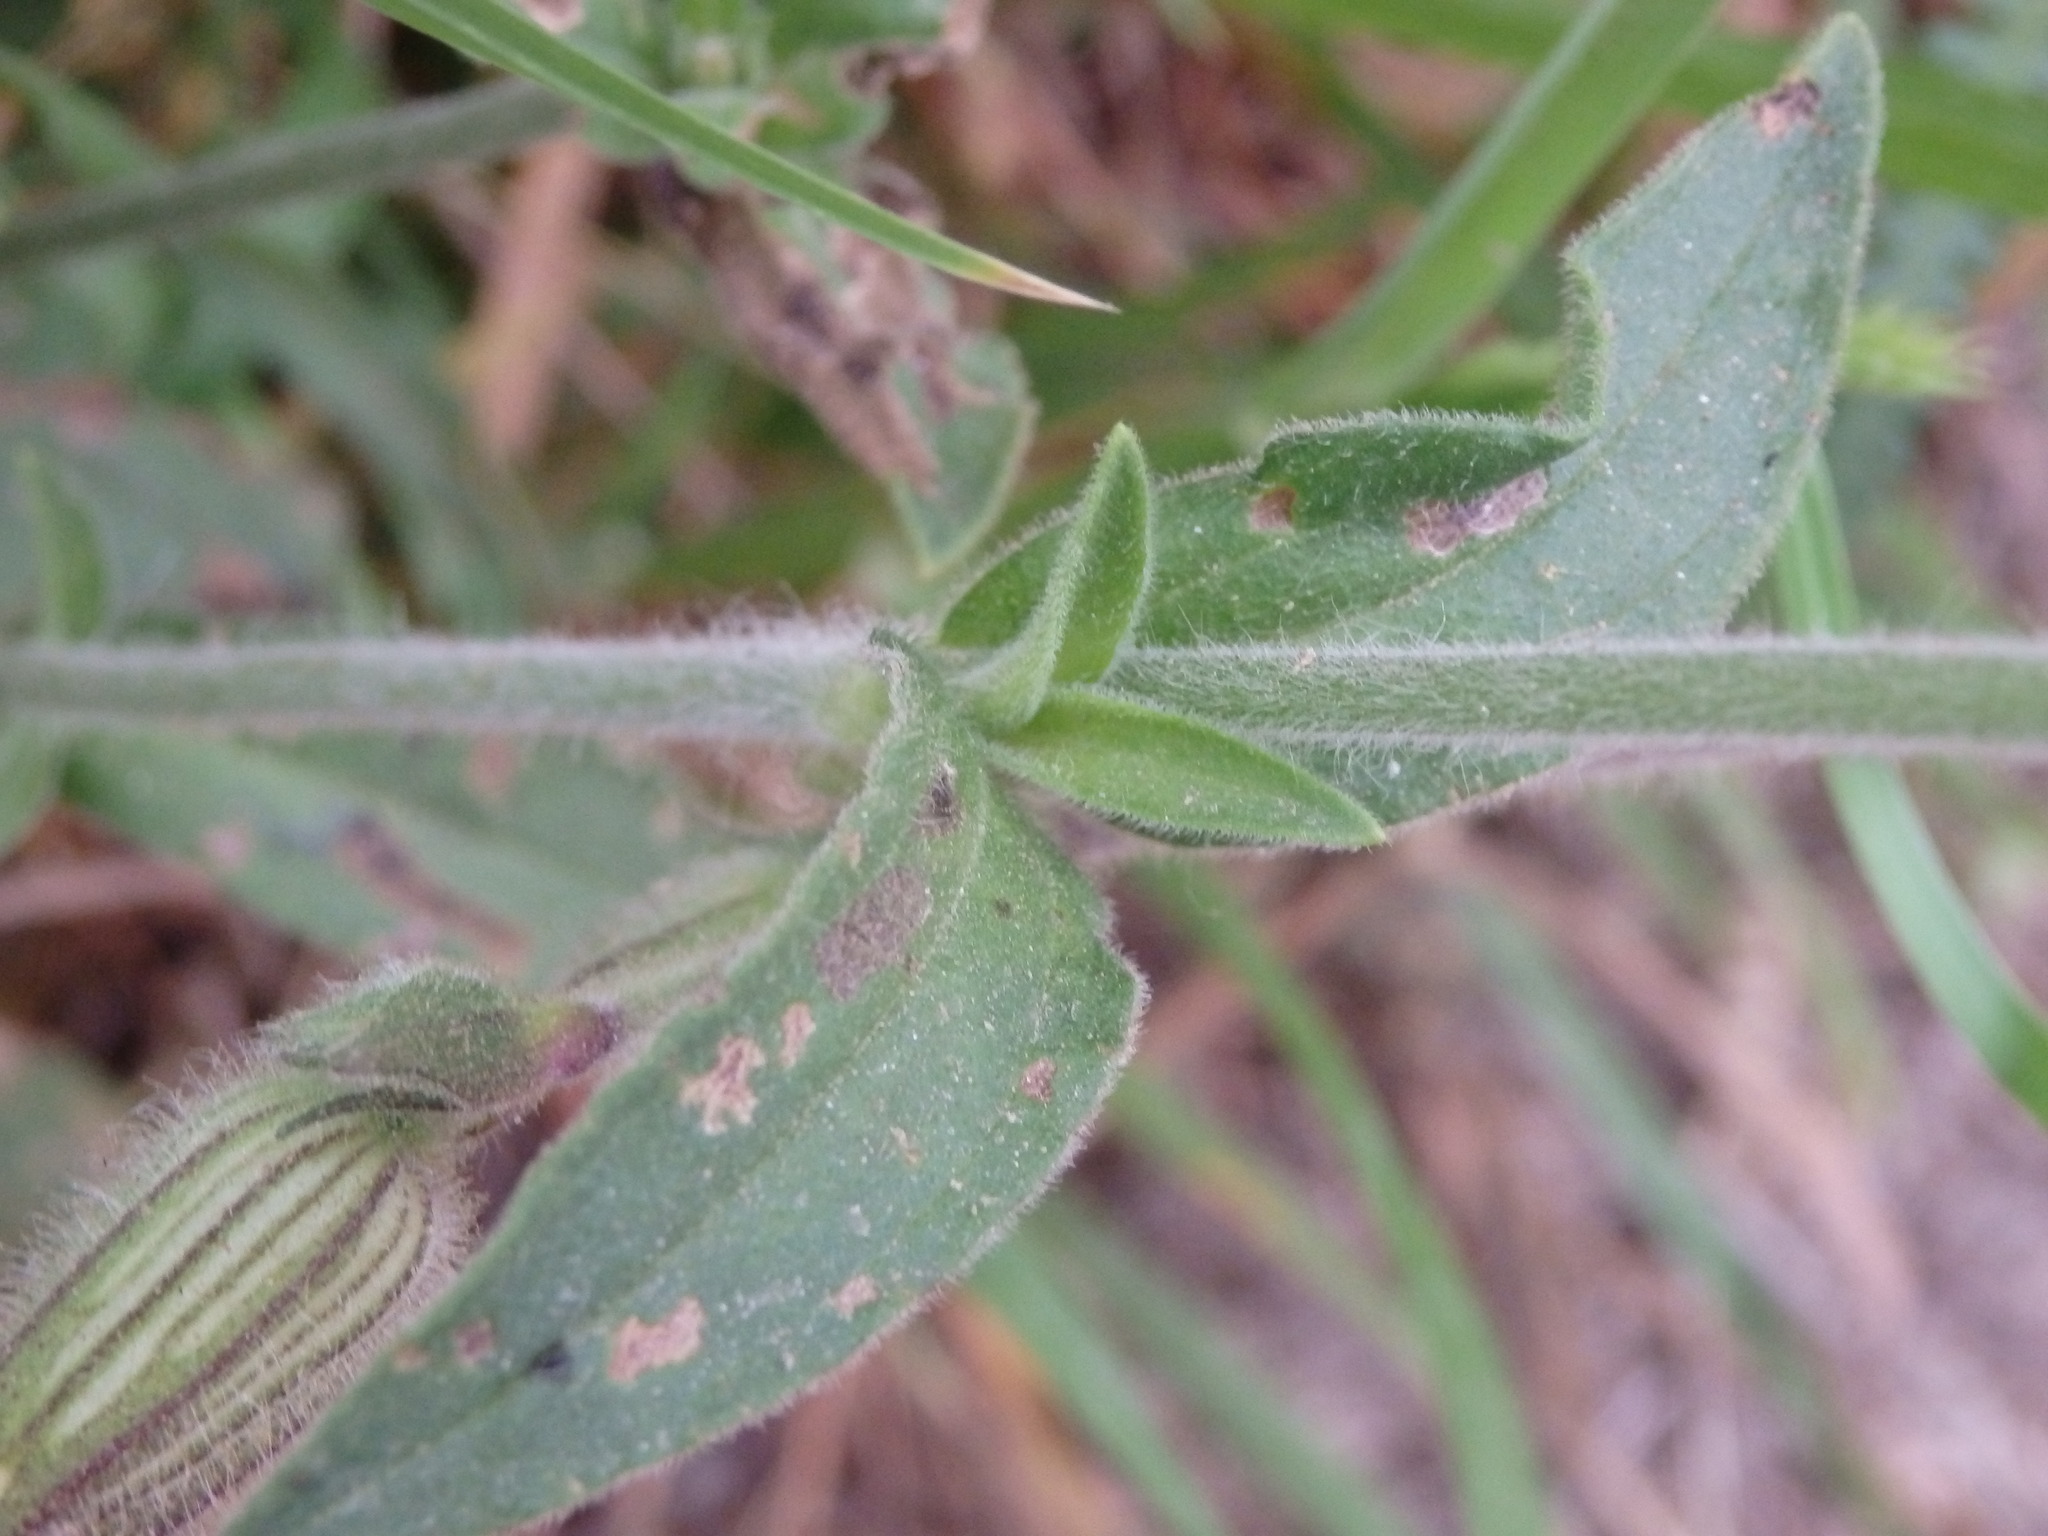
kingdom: Plantae
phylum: Tracheophyta
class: Magnoliopsida
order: Caryophyllales
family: Caryophyllaceae
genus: Silene
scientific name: Silene latifolia
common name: White campion
